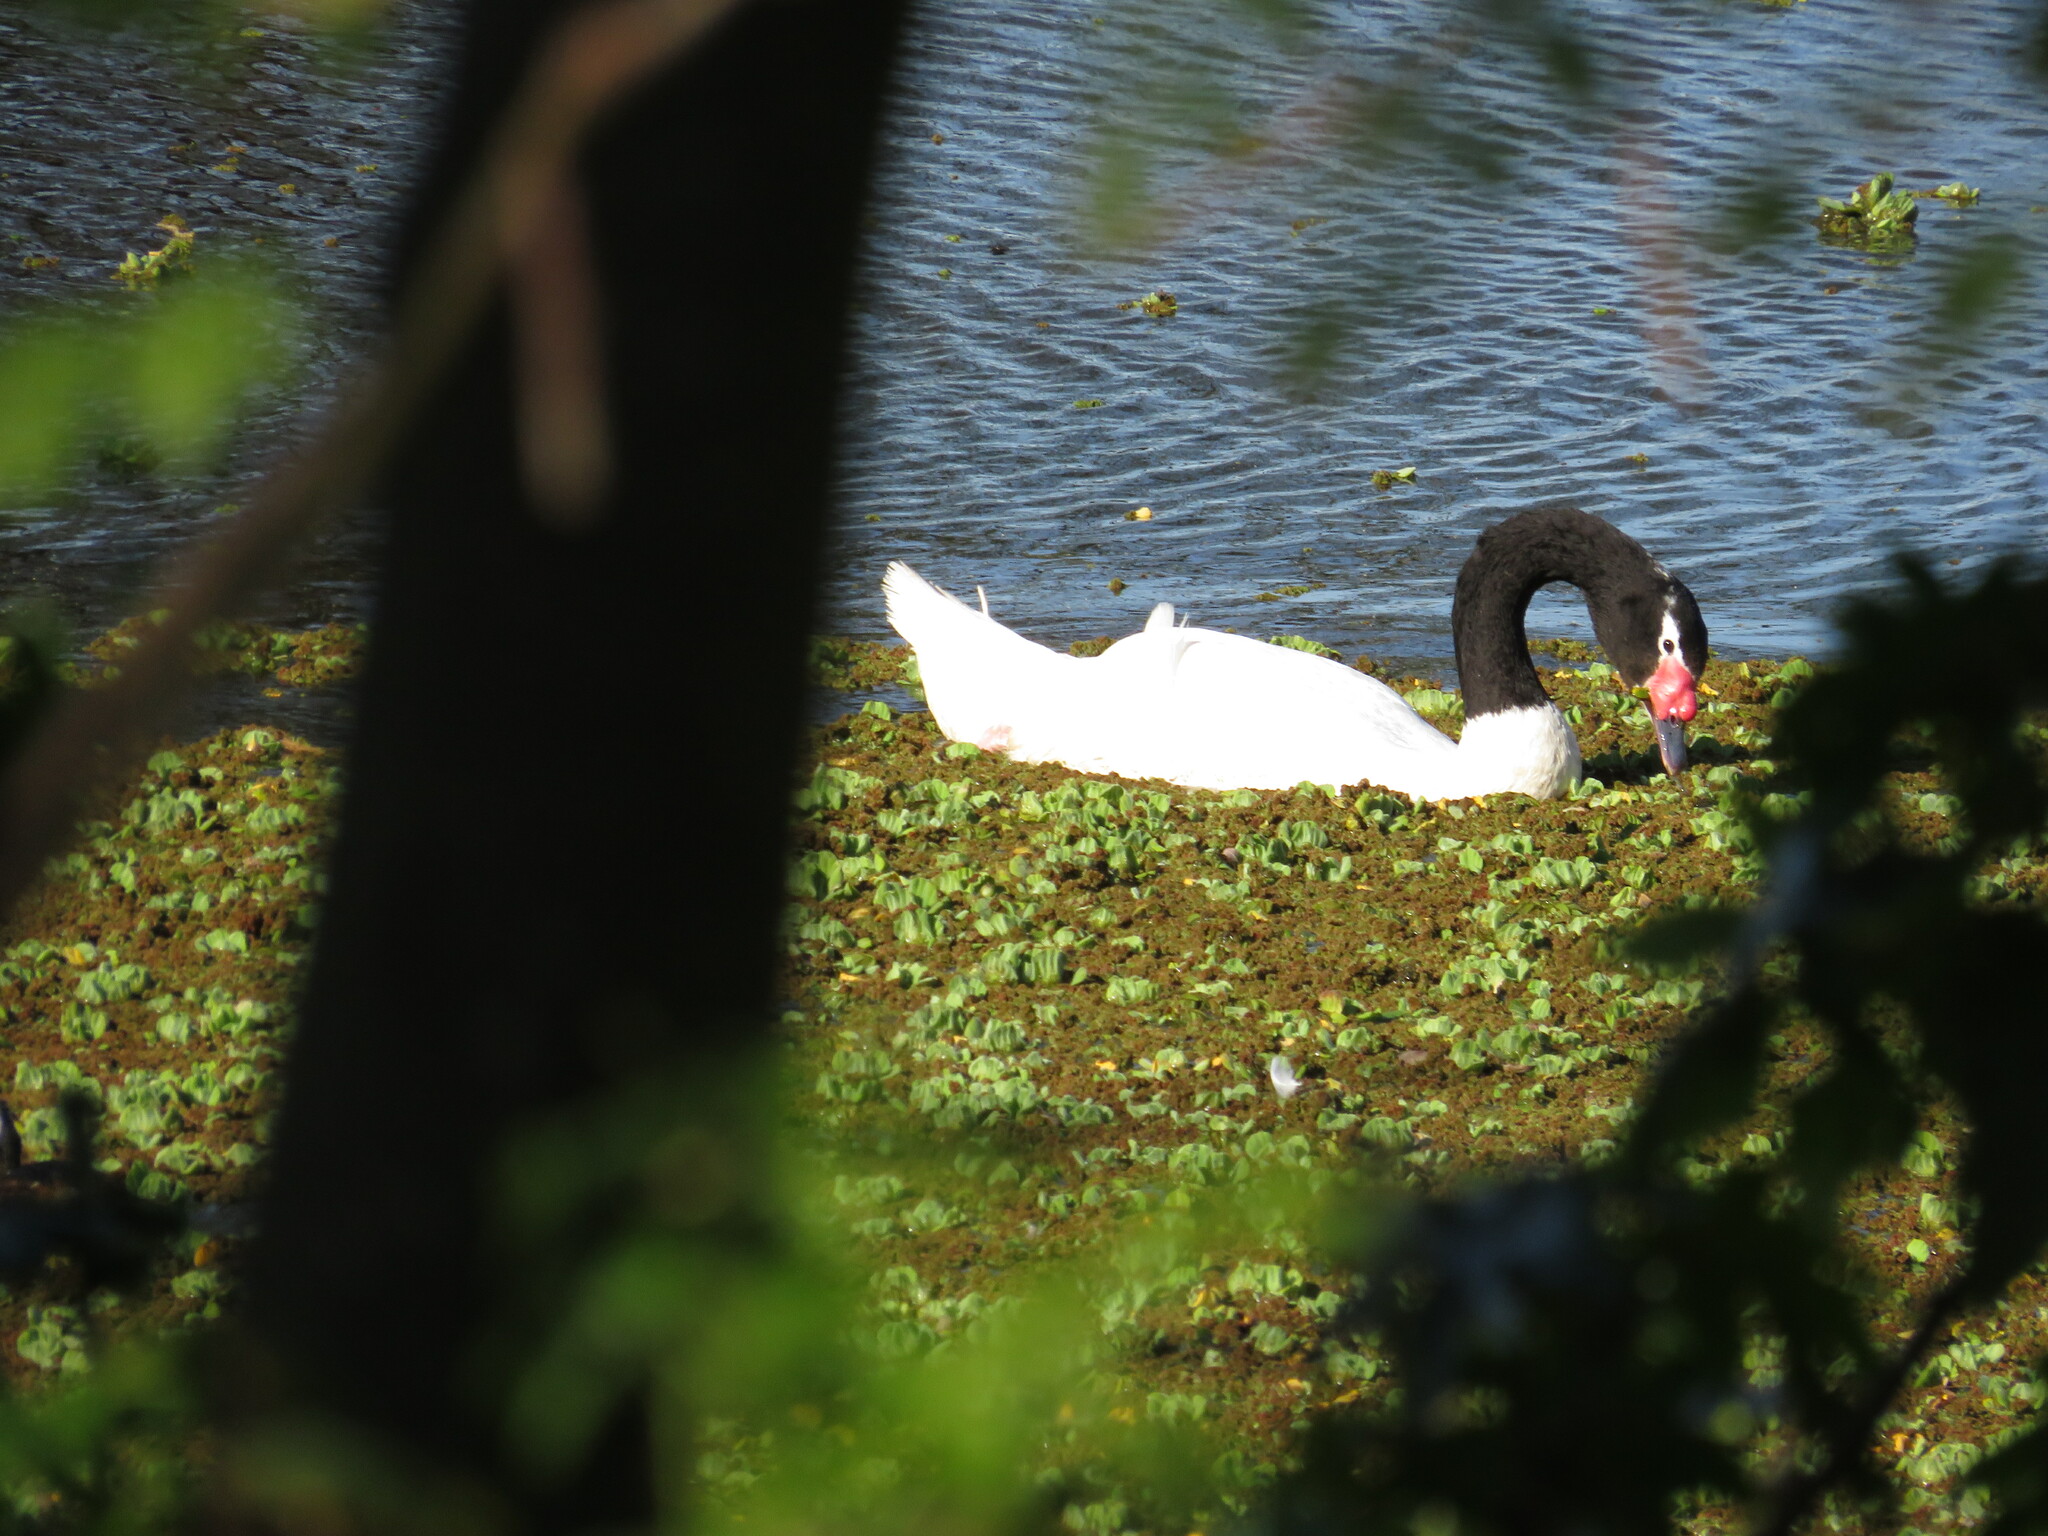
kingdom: Animalia
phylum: Chordata
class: Aves
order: Anseriformes
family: Anatidae
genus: Cygnus
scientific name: Cygnus melancoryphus
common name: Black-necked swan
